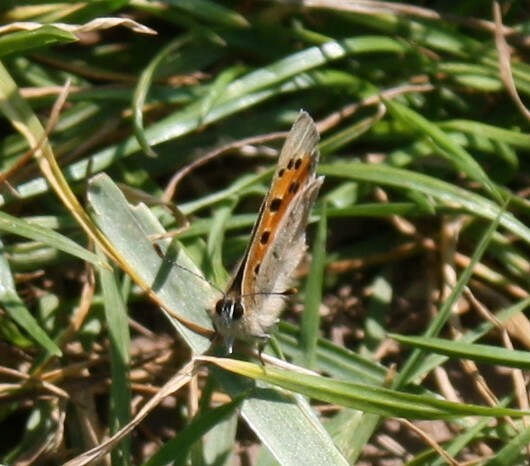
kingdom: Animalia
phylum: Arthropoda
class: Insecta
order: Lepidoptera
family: Lycaenidae
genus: Lycaena
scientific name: Lycaena phlaeas
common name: Small copper
